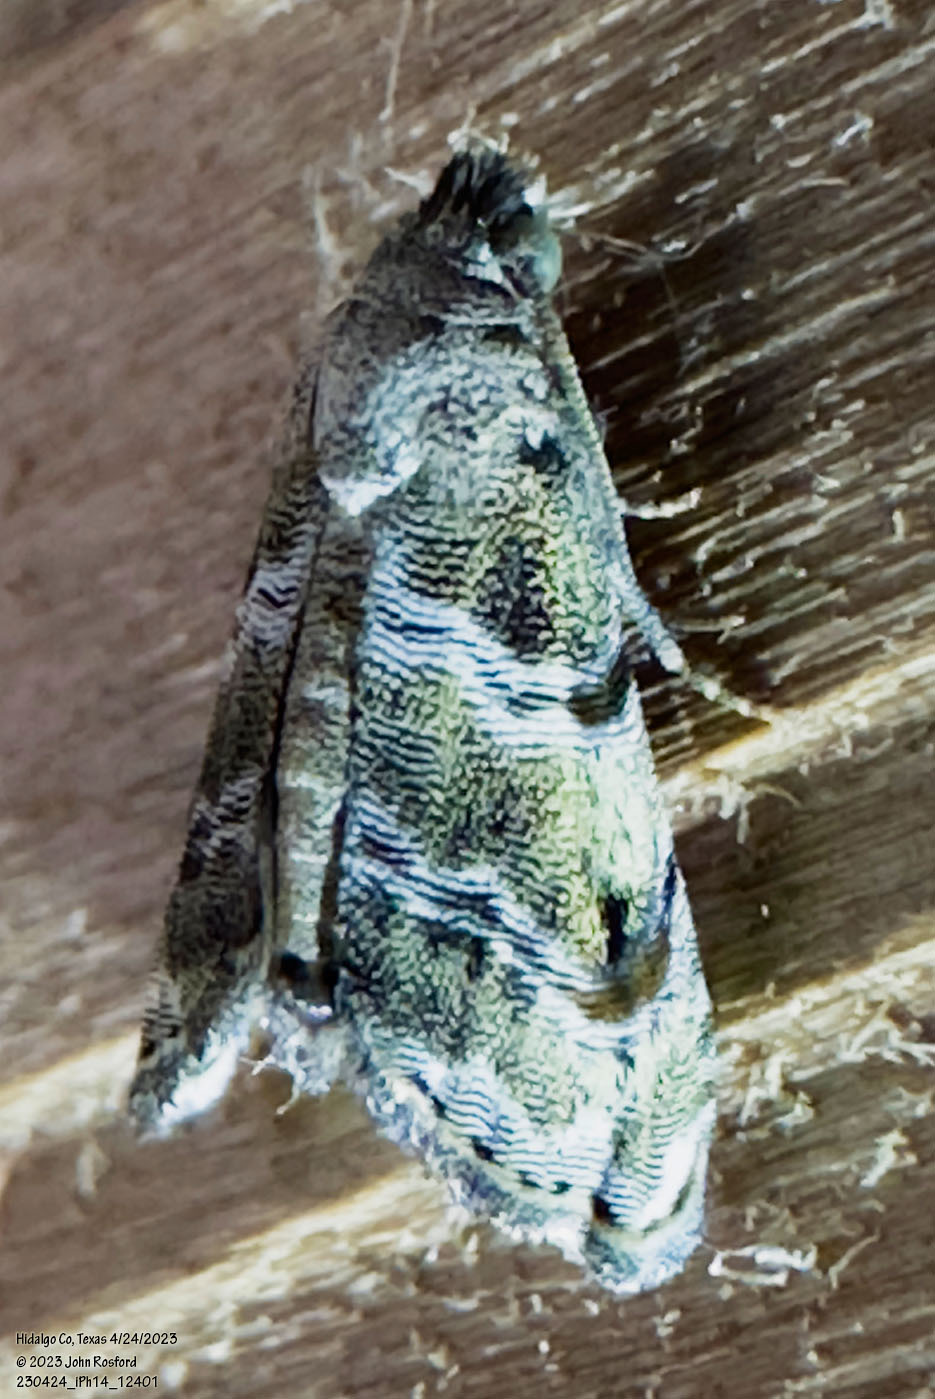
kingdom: Animalia
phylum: Arthropoda
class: Insecta
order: Lepidoptera
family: Noctuidae
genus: Abablemma
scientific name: Abablemma bilineata
